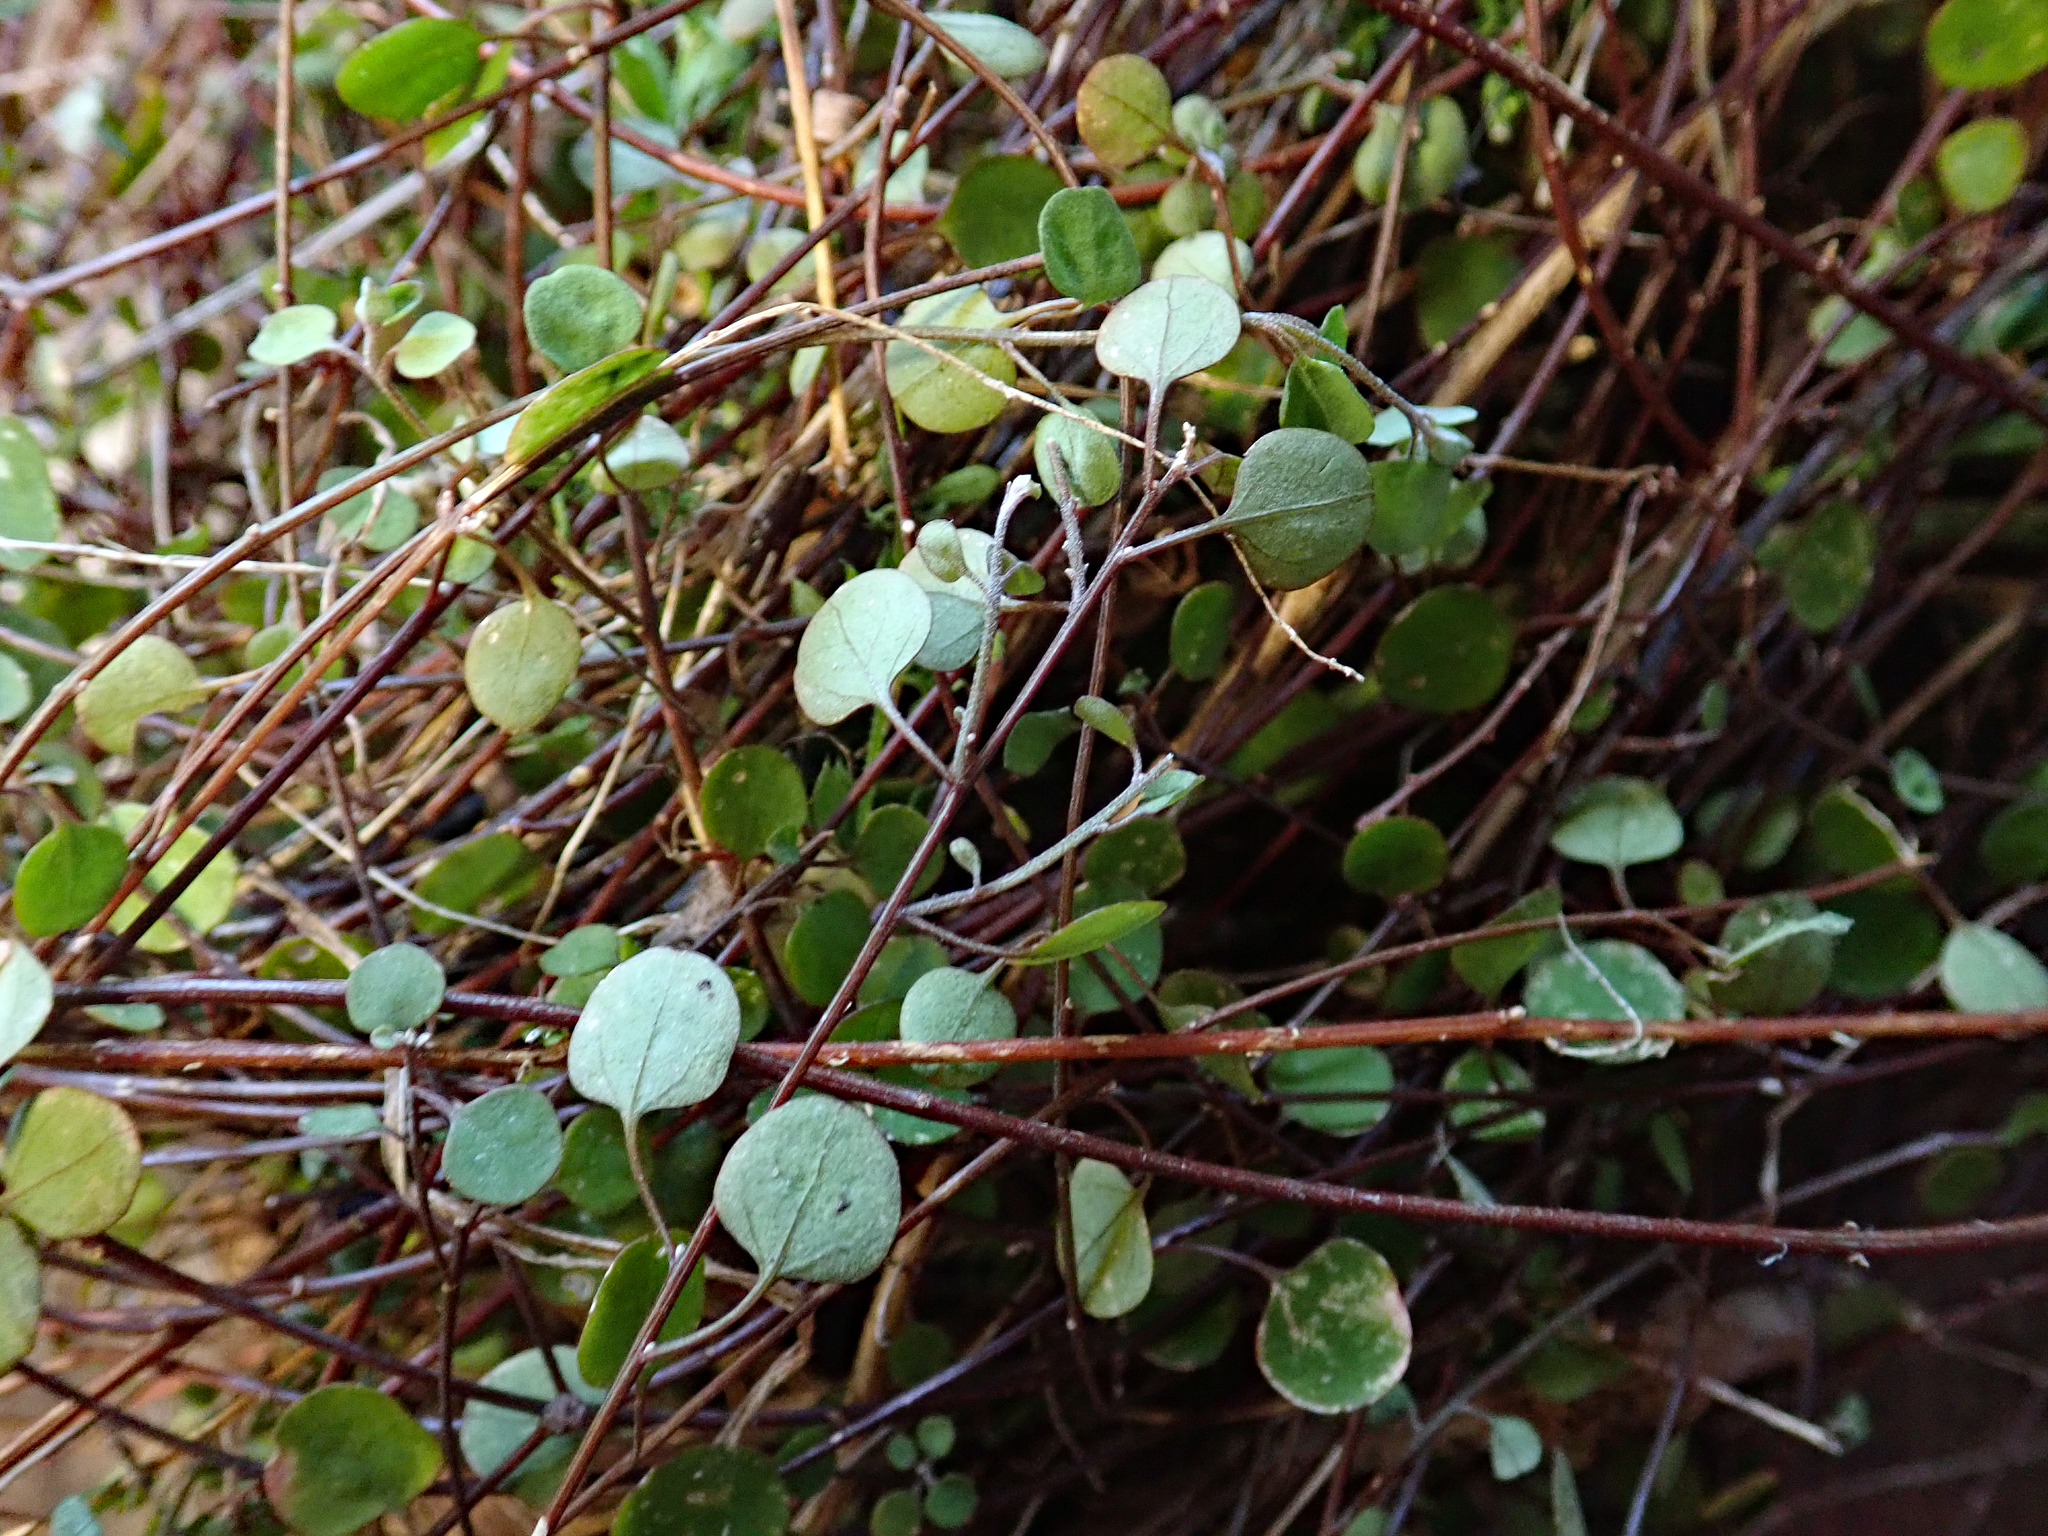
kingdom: Plantae
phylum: Tracheophyta
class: Magnoliopsida
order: Caryophyllales
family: Amaranthaceae
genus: Chenopodium
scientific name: Chenopodium allanii
